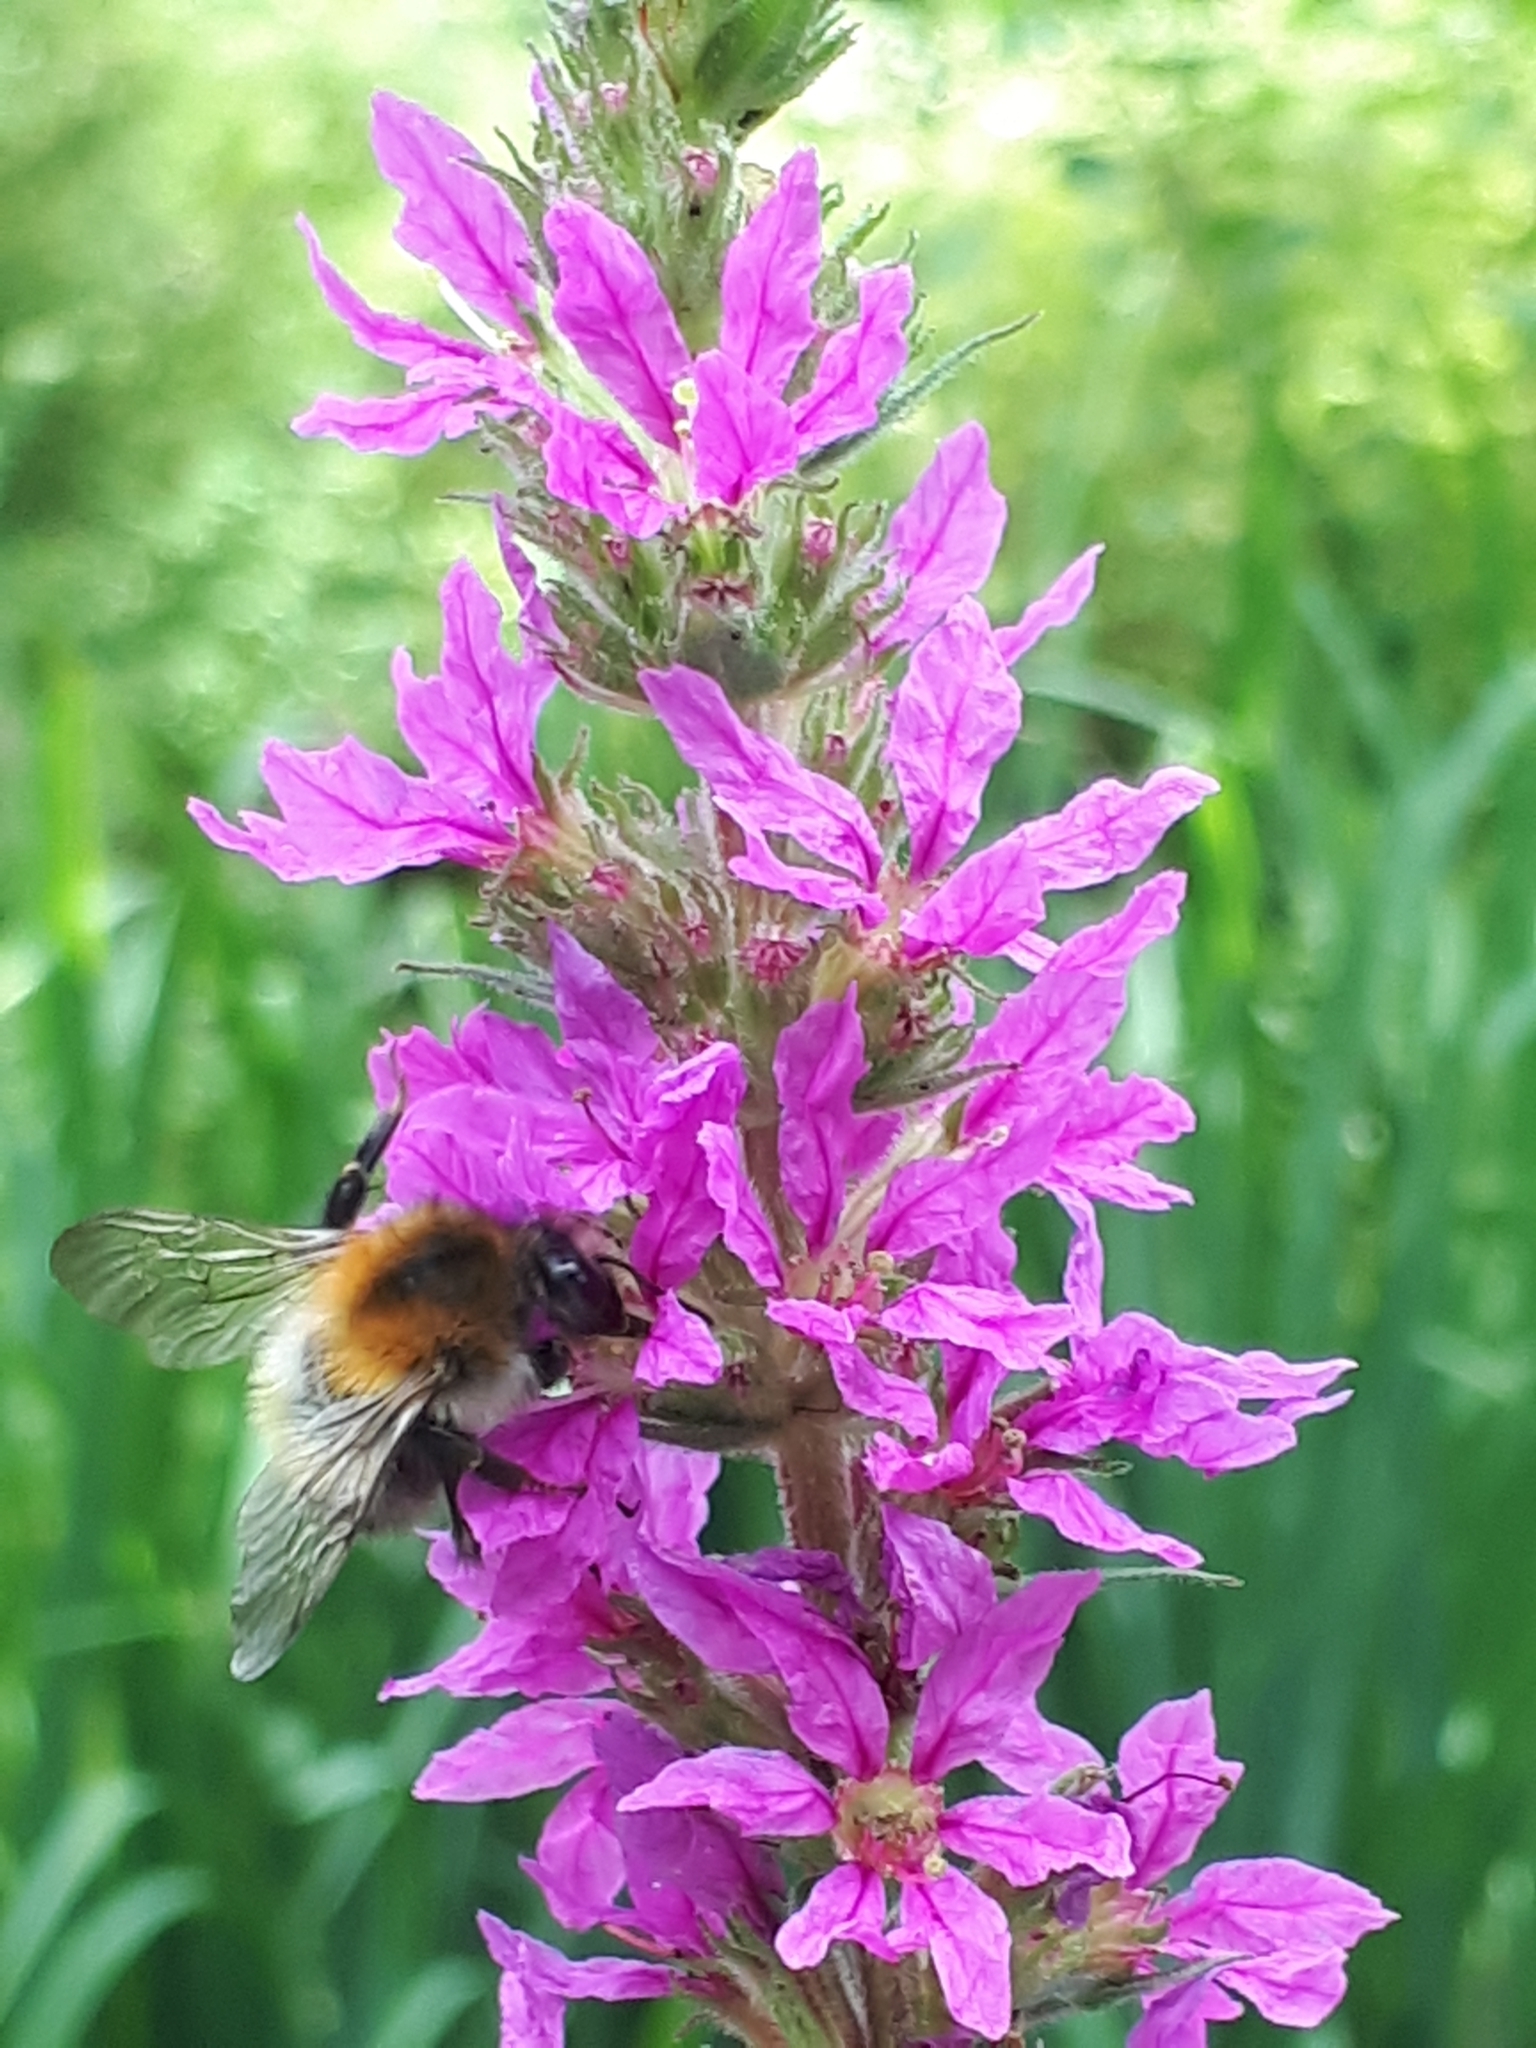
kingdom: Animalia
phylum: Arthropoda
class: Insecta
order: Hymenoptera
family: Apidae
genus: Bombus
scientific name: Bombus pascuorum
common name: Common carder bee
